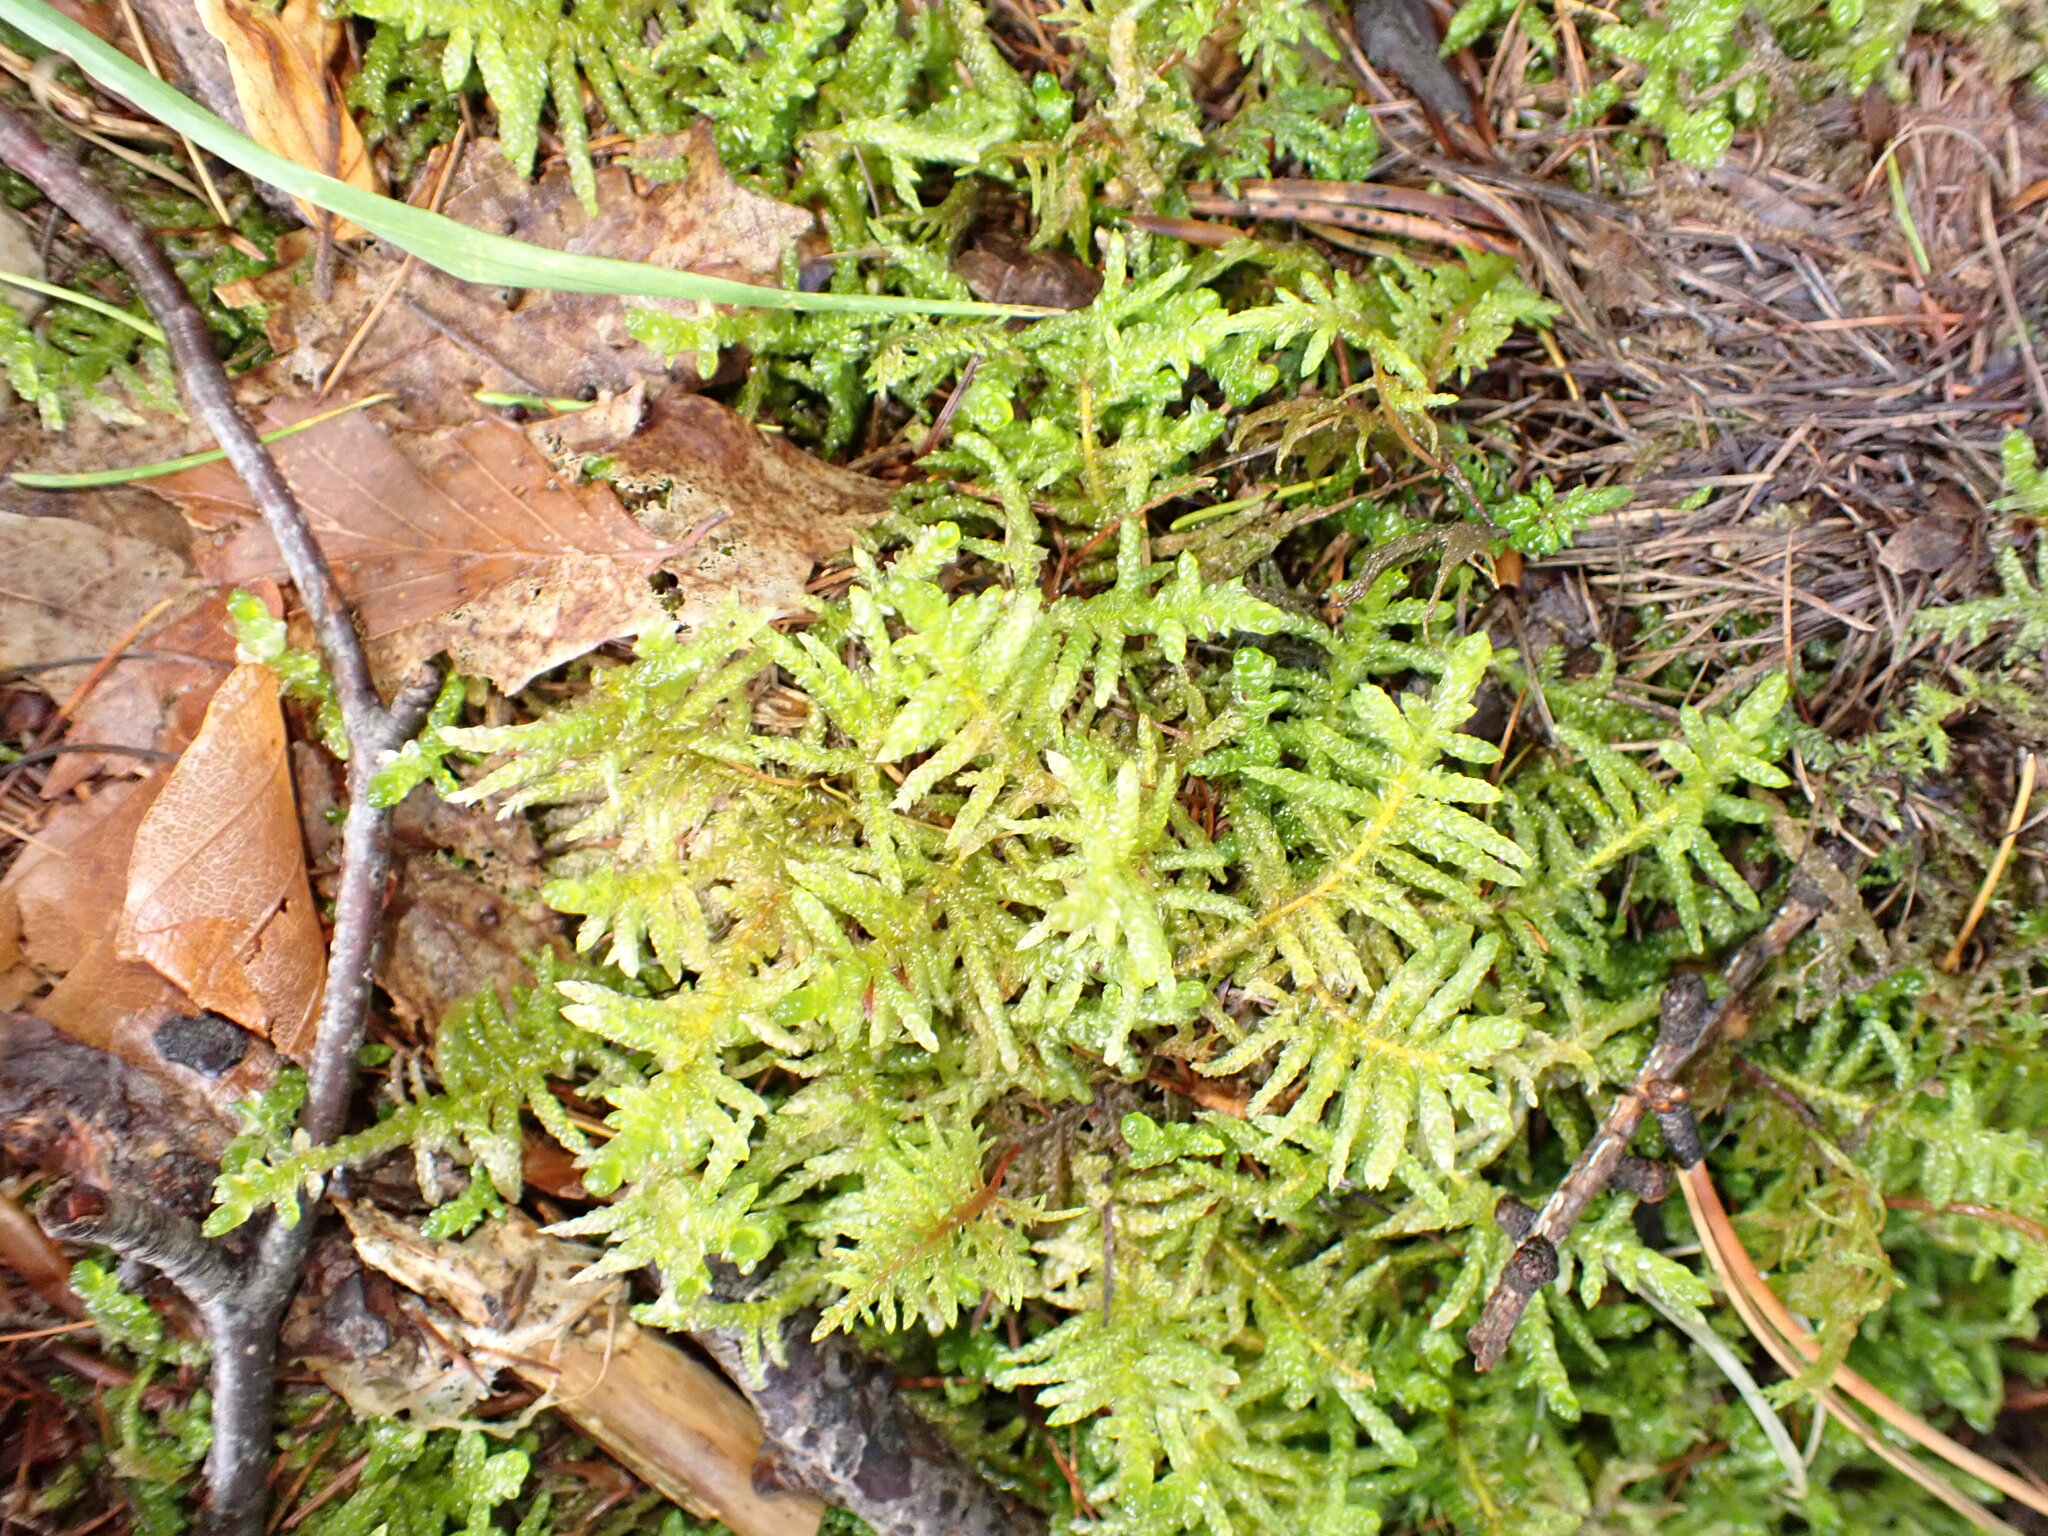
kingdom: Plantae
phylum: Bryophyta
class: Bryopsida
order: Hypnales
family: Brachytheciaceae
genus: Pseudoscleropodium
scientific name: Pseudoscleropodium purum
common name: Neat feather-moss
